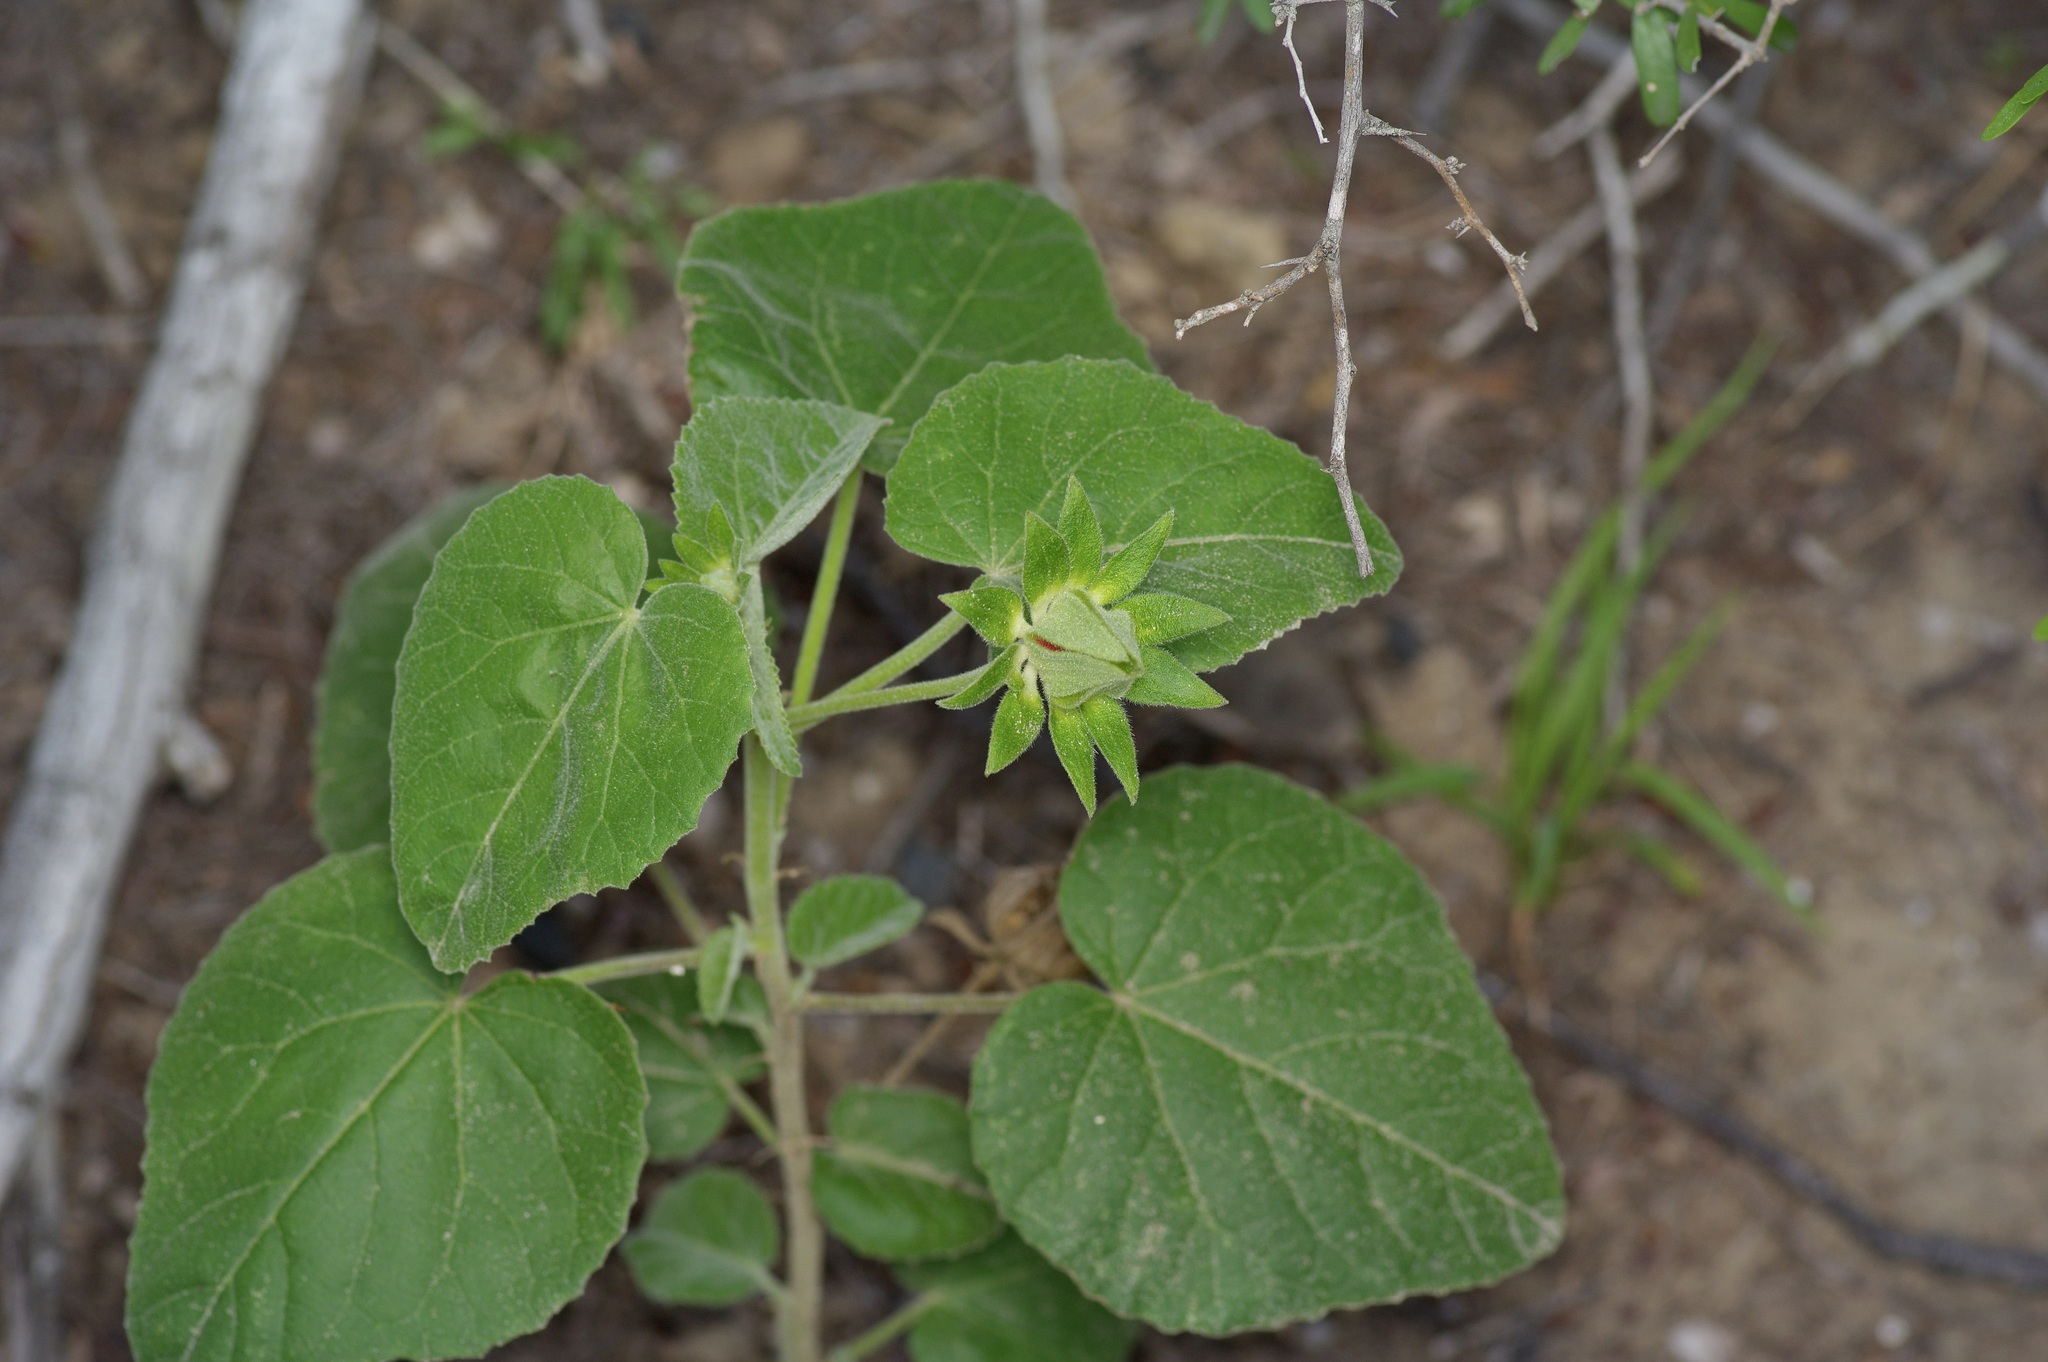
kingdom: Plantae
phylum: Tracheophyta
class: Magnoliopsida
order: Malvales
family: Malvaceae
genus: Hibiscus
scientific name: Hibiscus martianus
